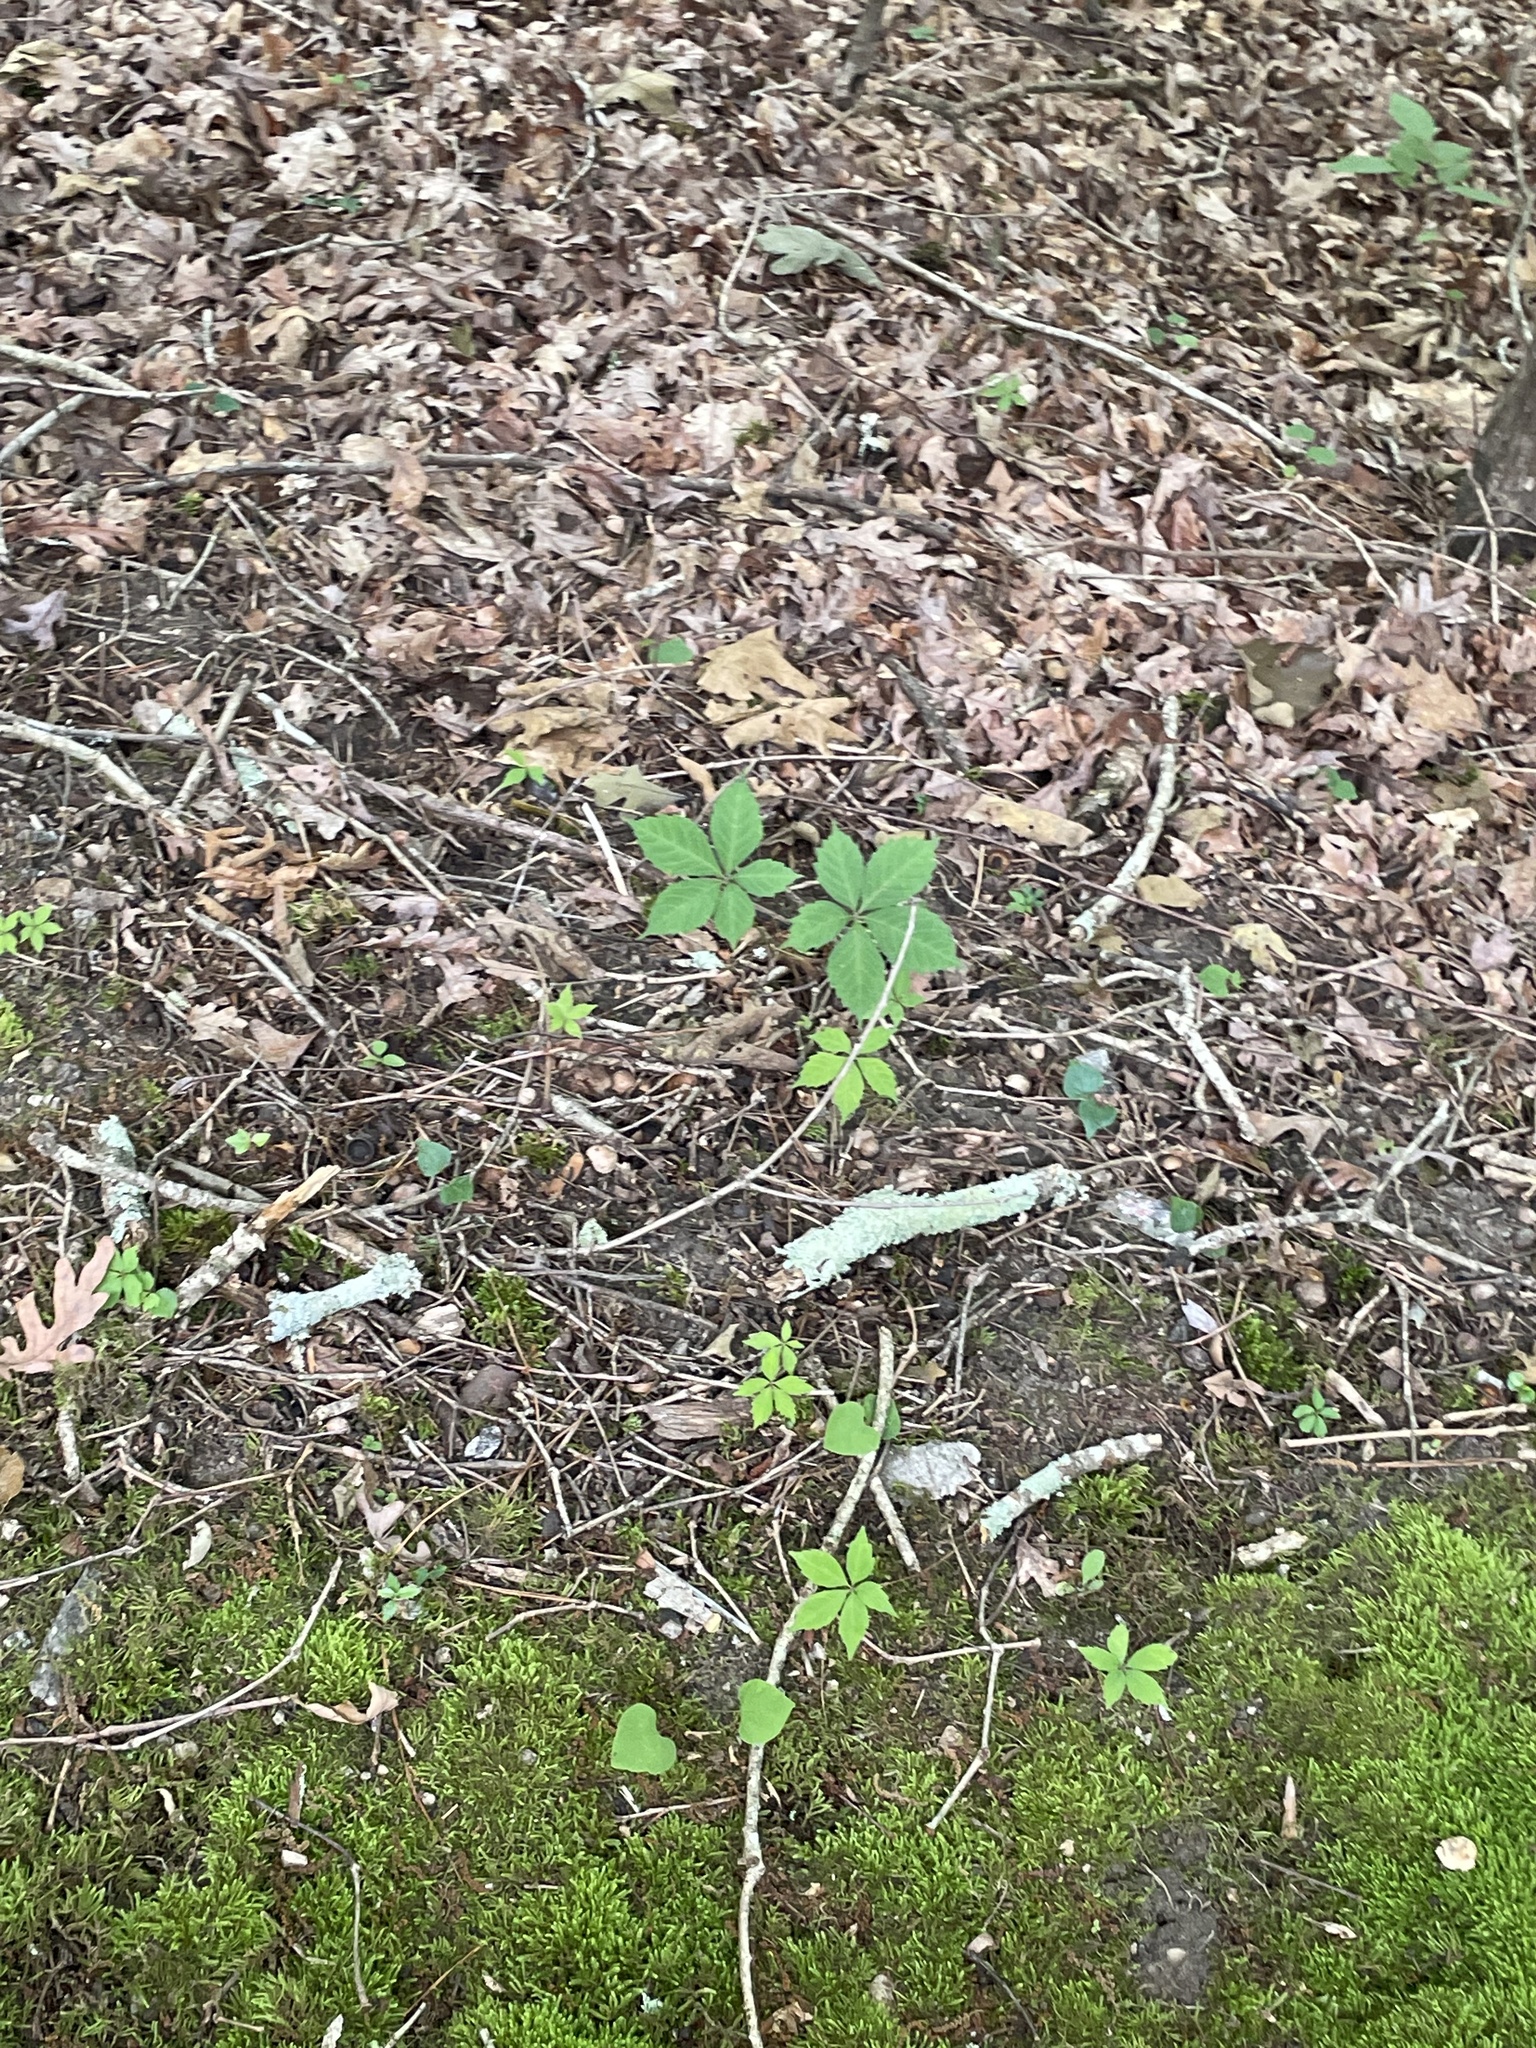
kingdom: Plantae
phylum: Tracheophyta
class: Magnoliopsida
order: Vitales
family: Vitaceae
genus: Parthenocissus
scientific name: Parthenocissus quinquefolia
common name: Virginia-creeper
